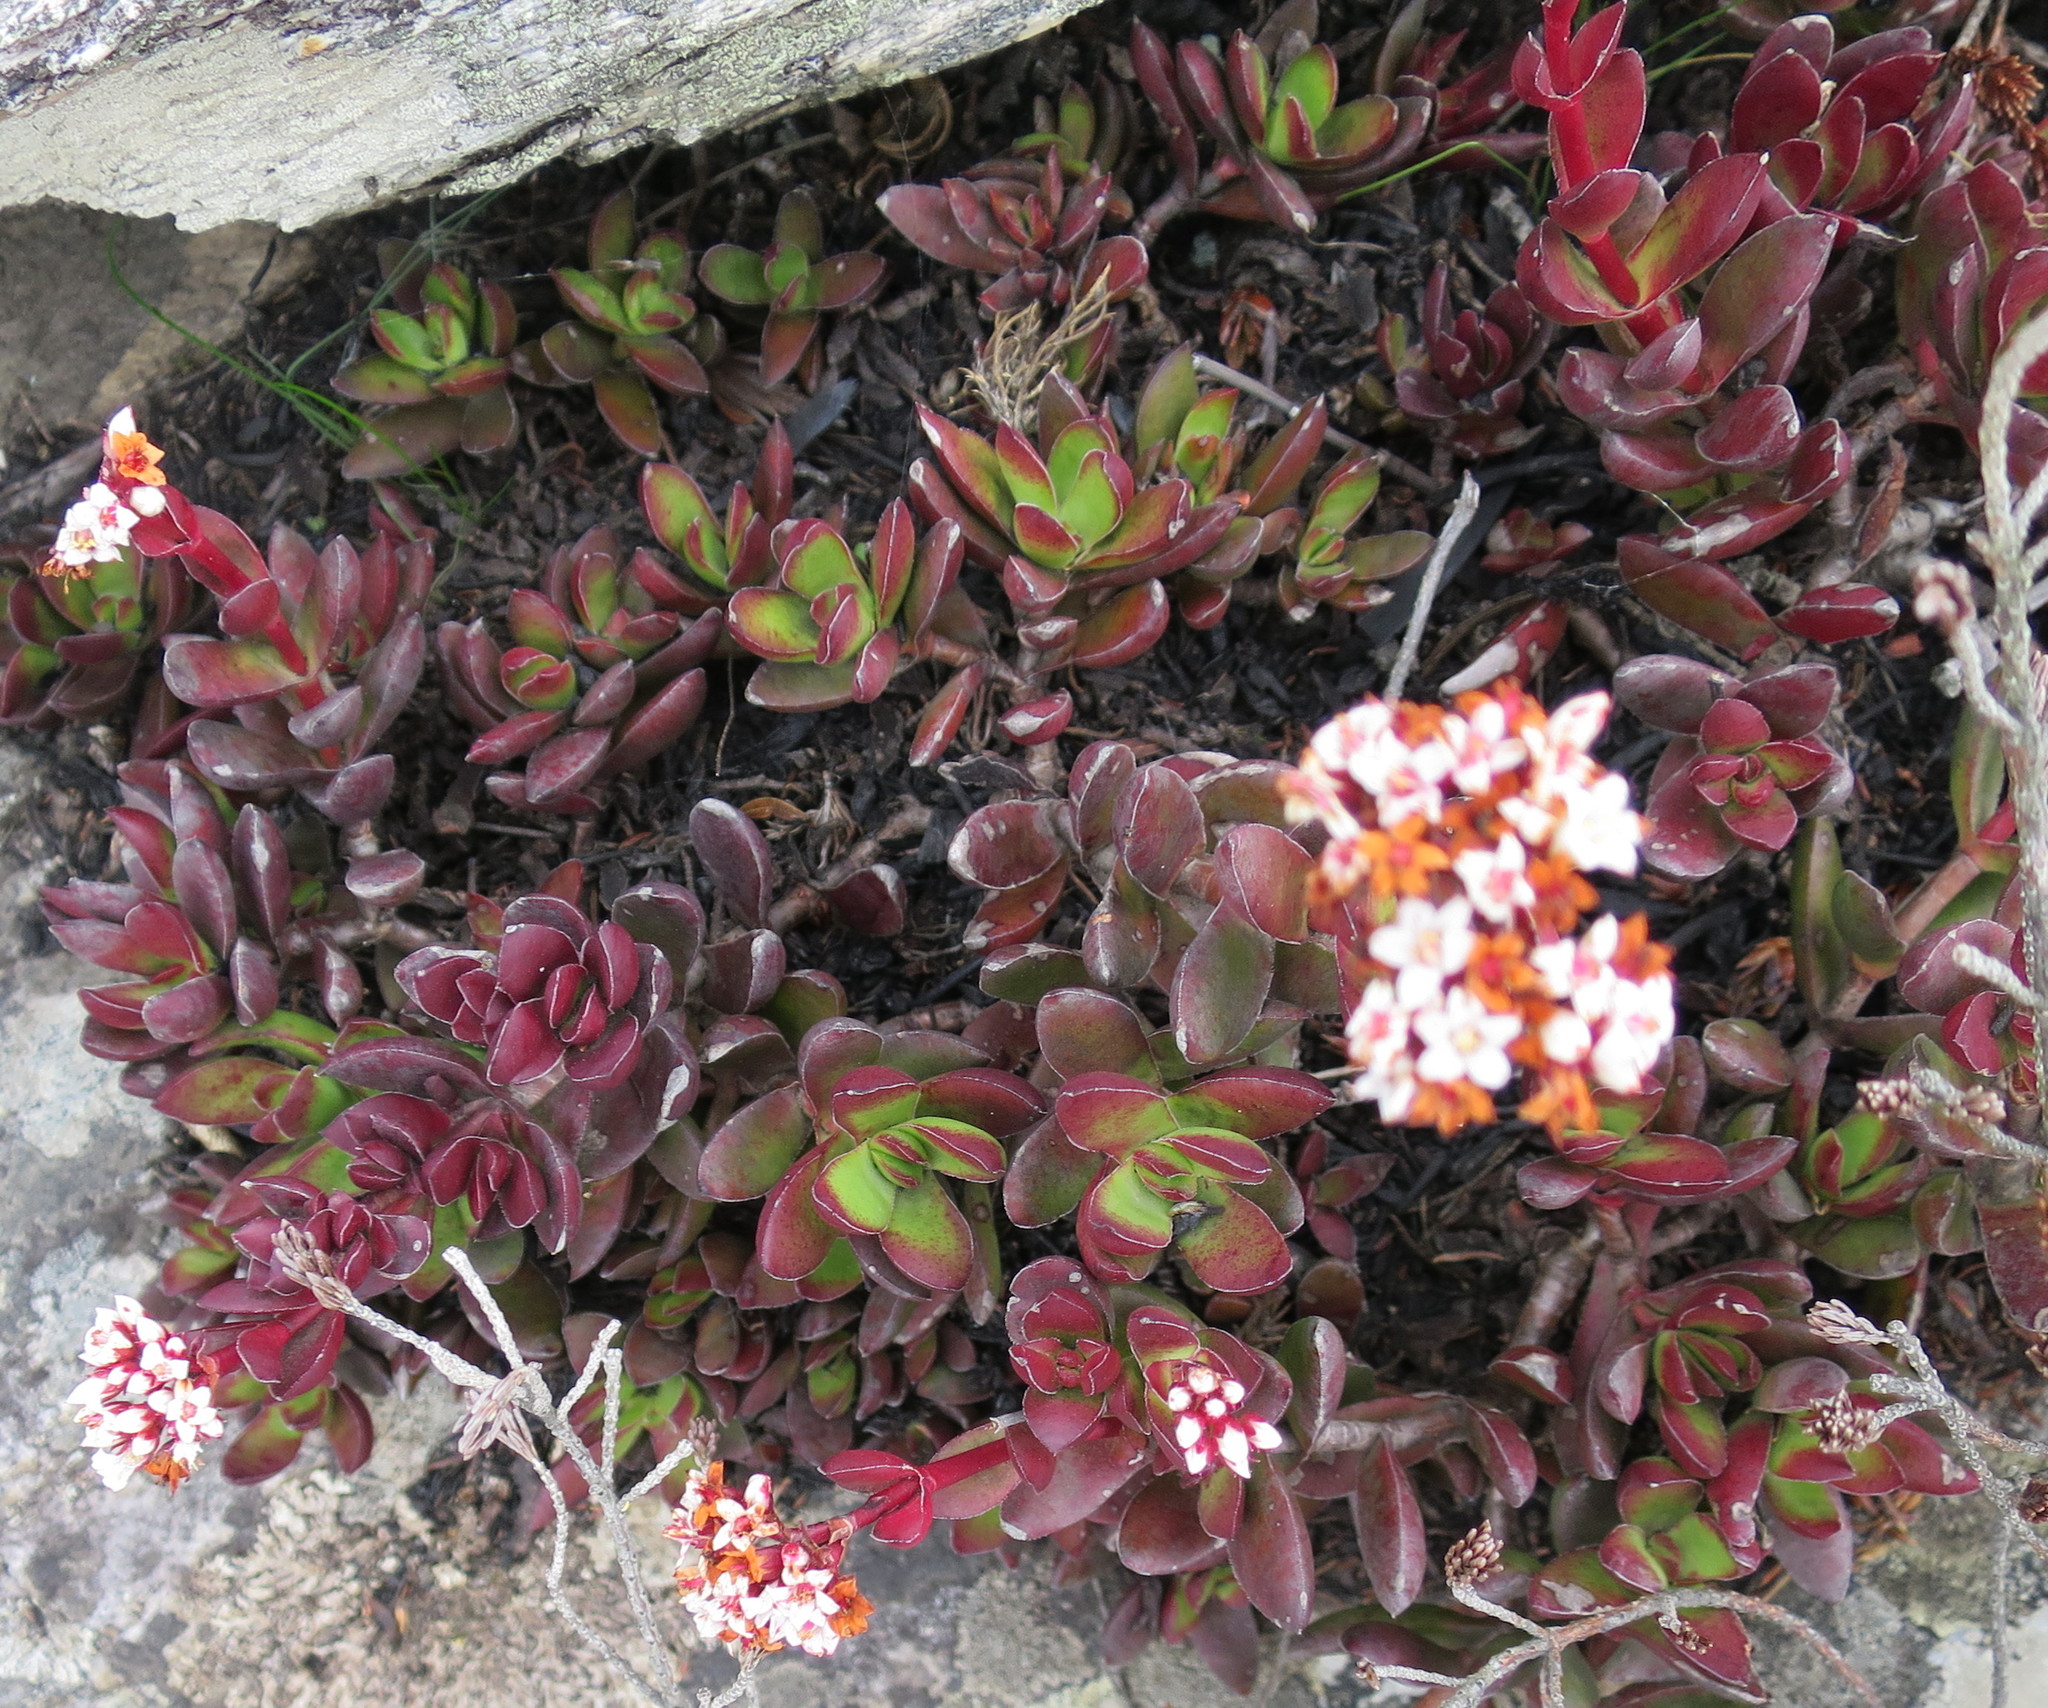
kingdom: Plantae
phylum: Tracheophyta
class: Magnoliopsida
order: Saxifragales
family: Crassulaceae
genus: Crassula
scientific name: Crassula rubricaulis
